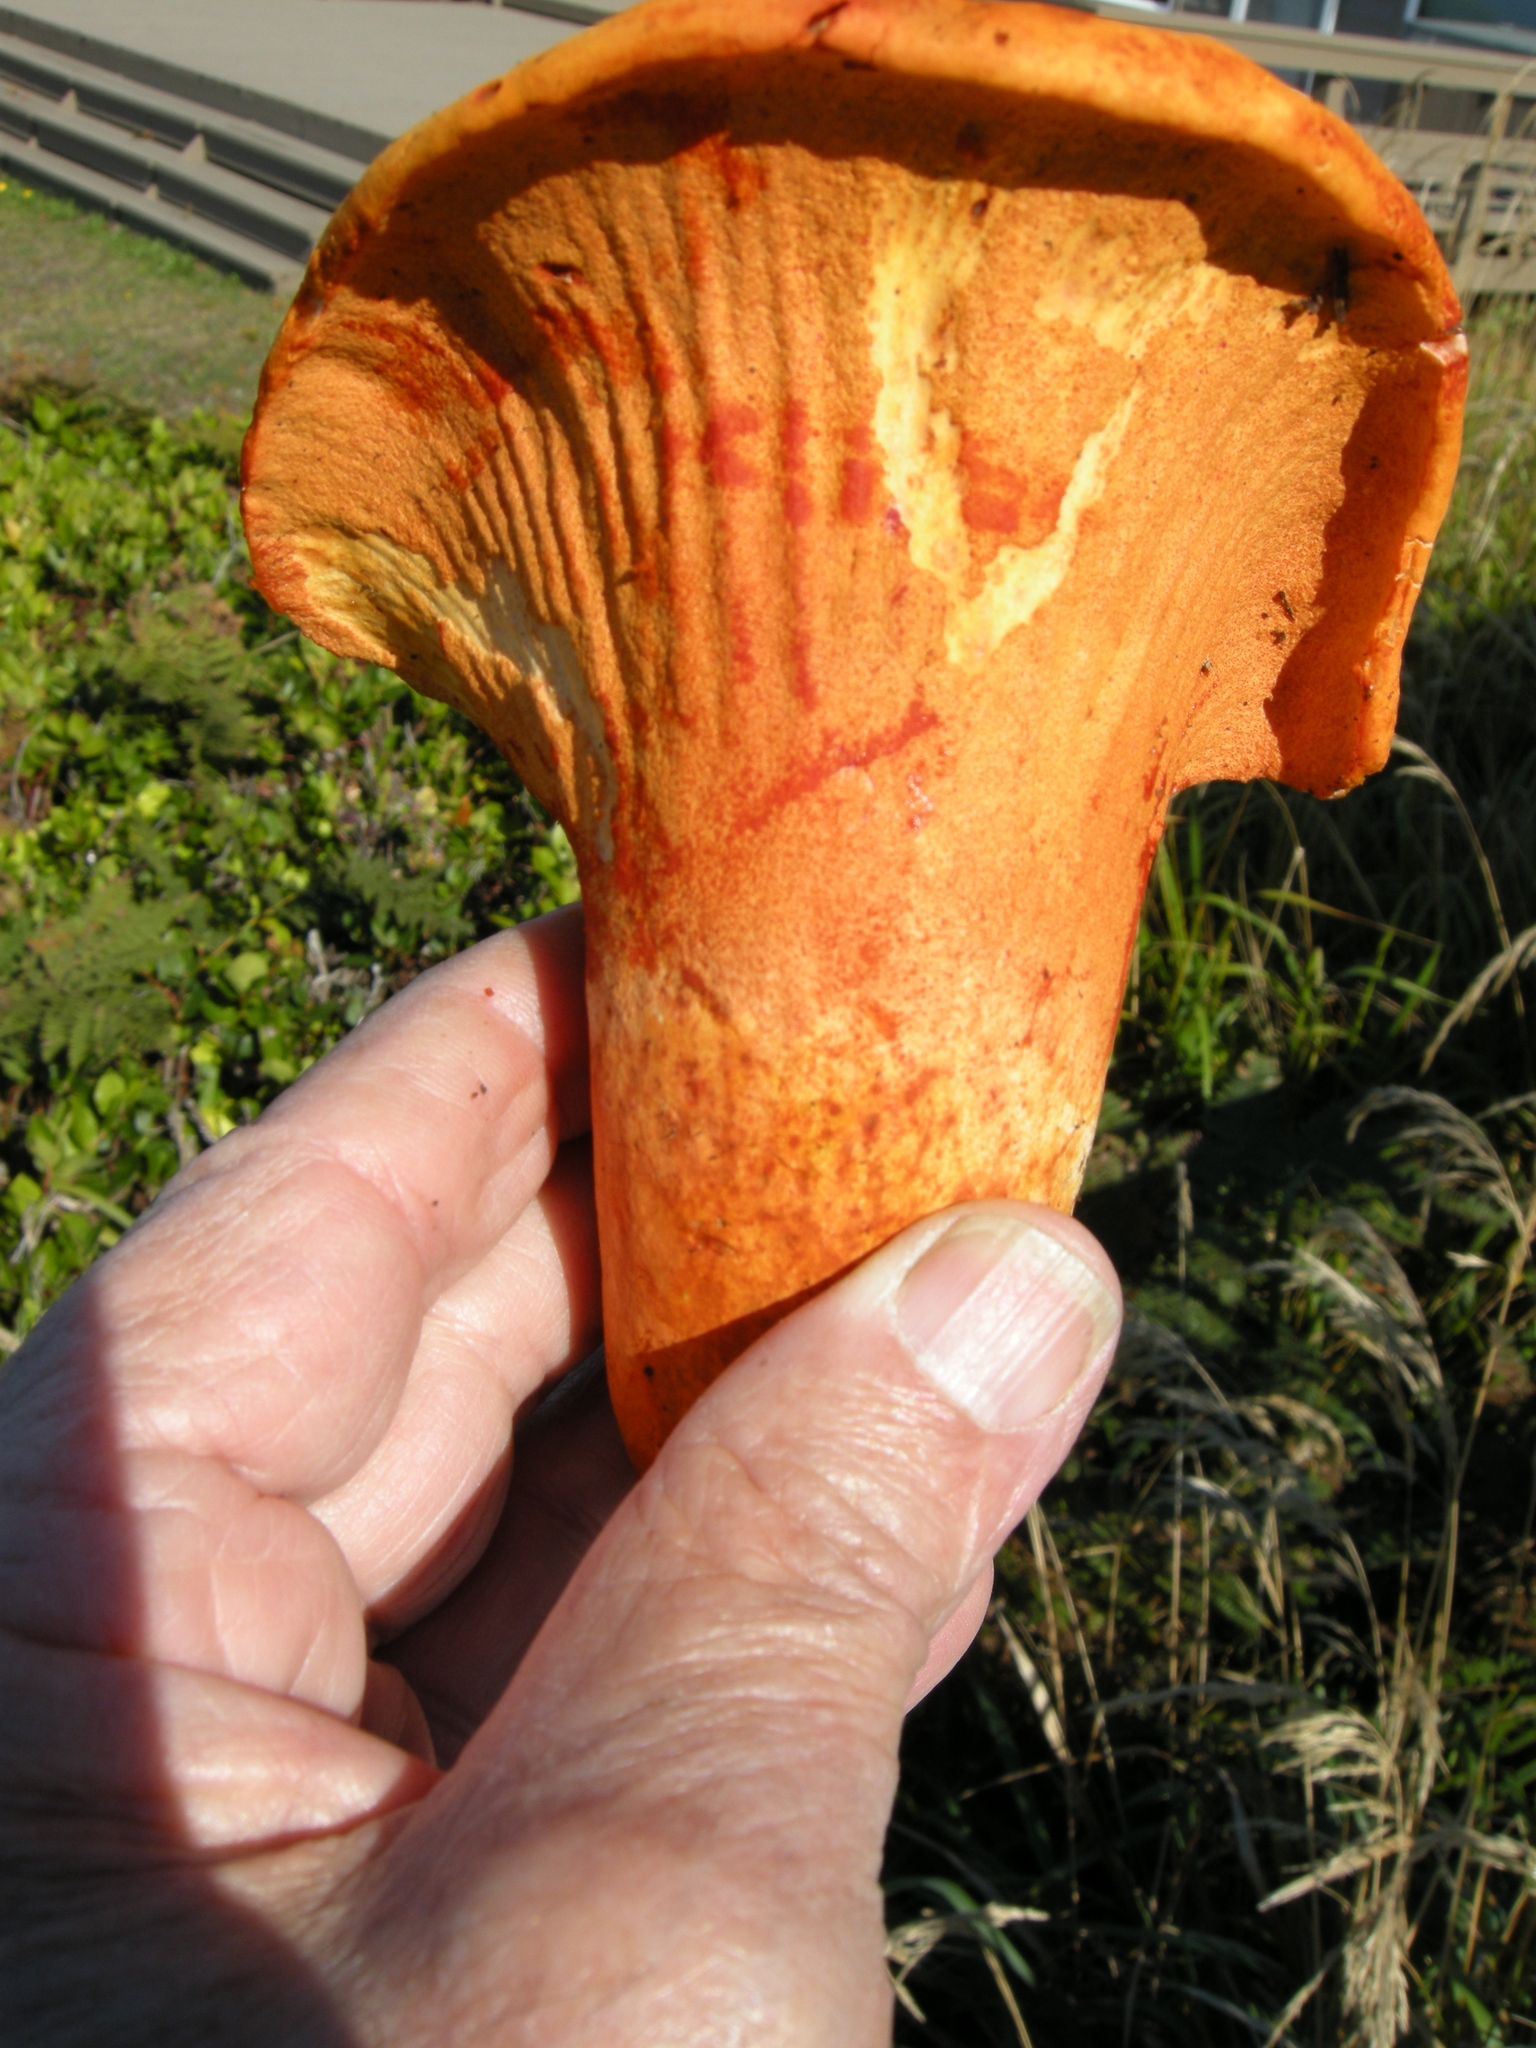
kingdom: Fungi
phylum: Ascomycota
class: Sordariomycetes
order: Hypocreales
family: Hypocreaceae
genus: Hypomyces
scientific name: Hypomyces lactifluorum
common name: Lobster mushroom
